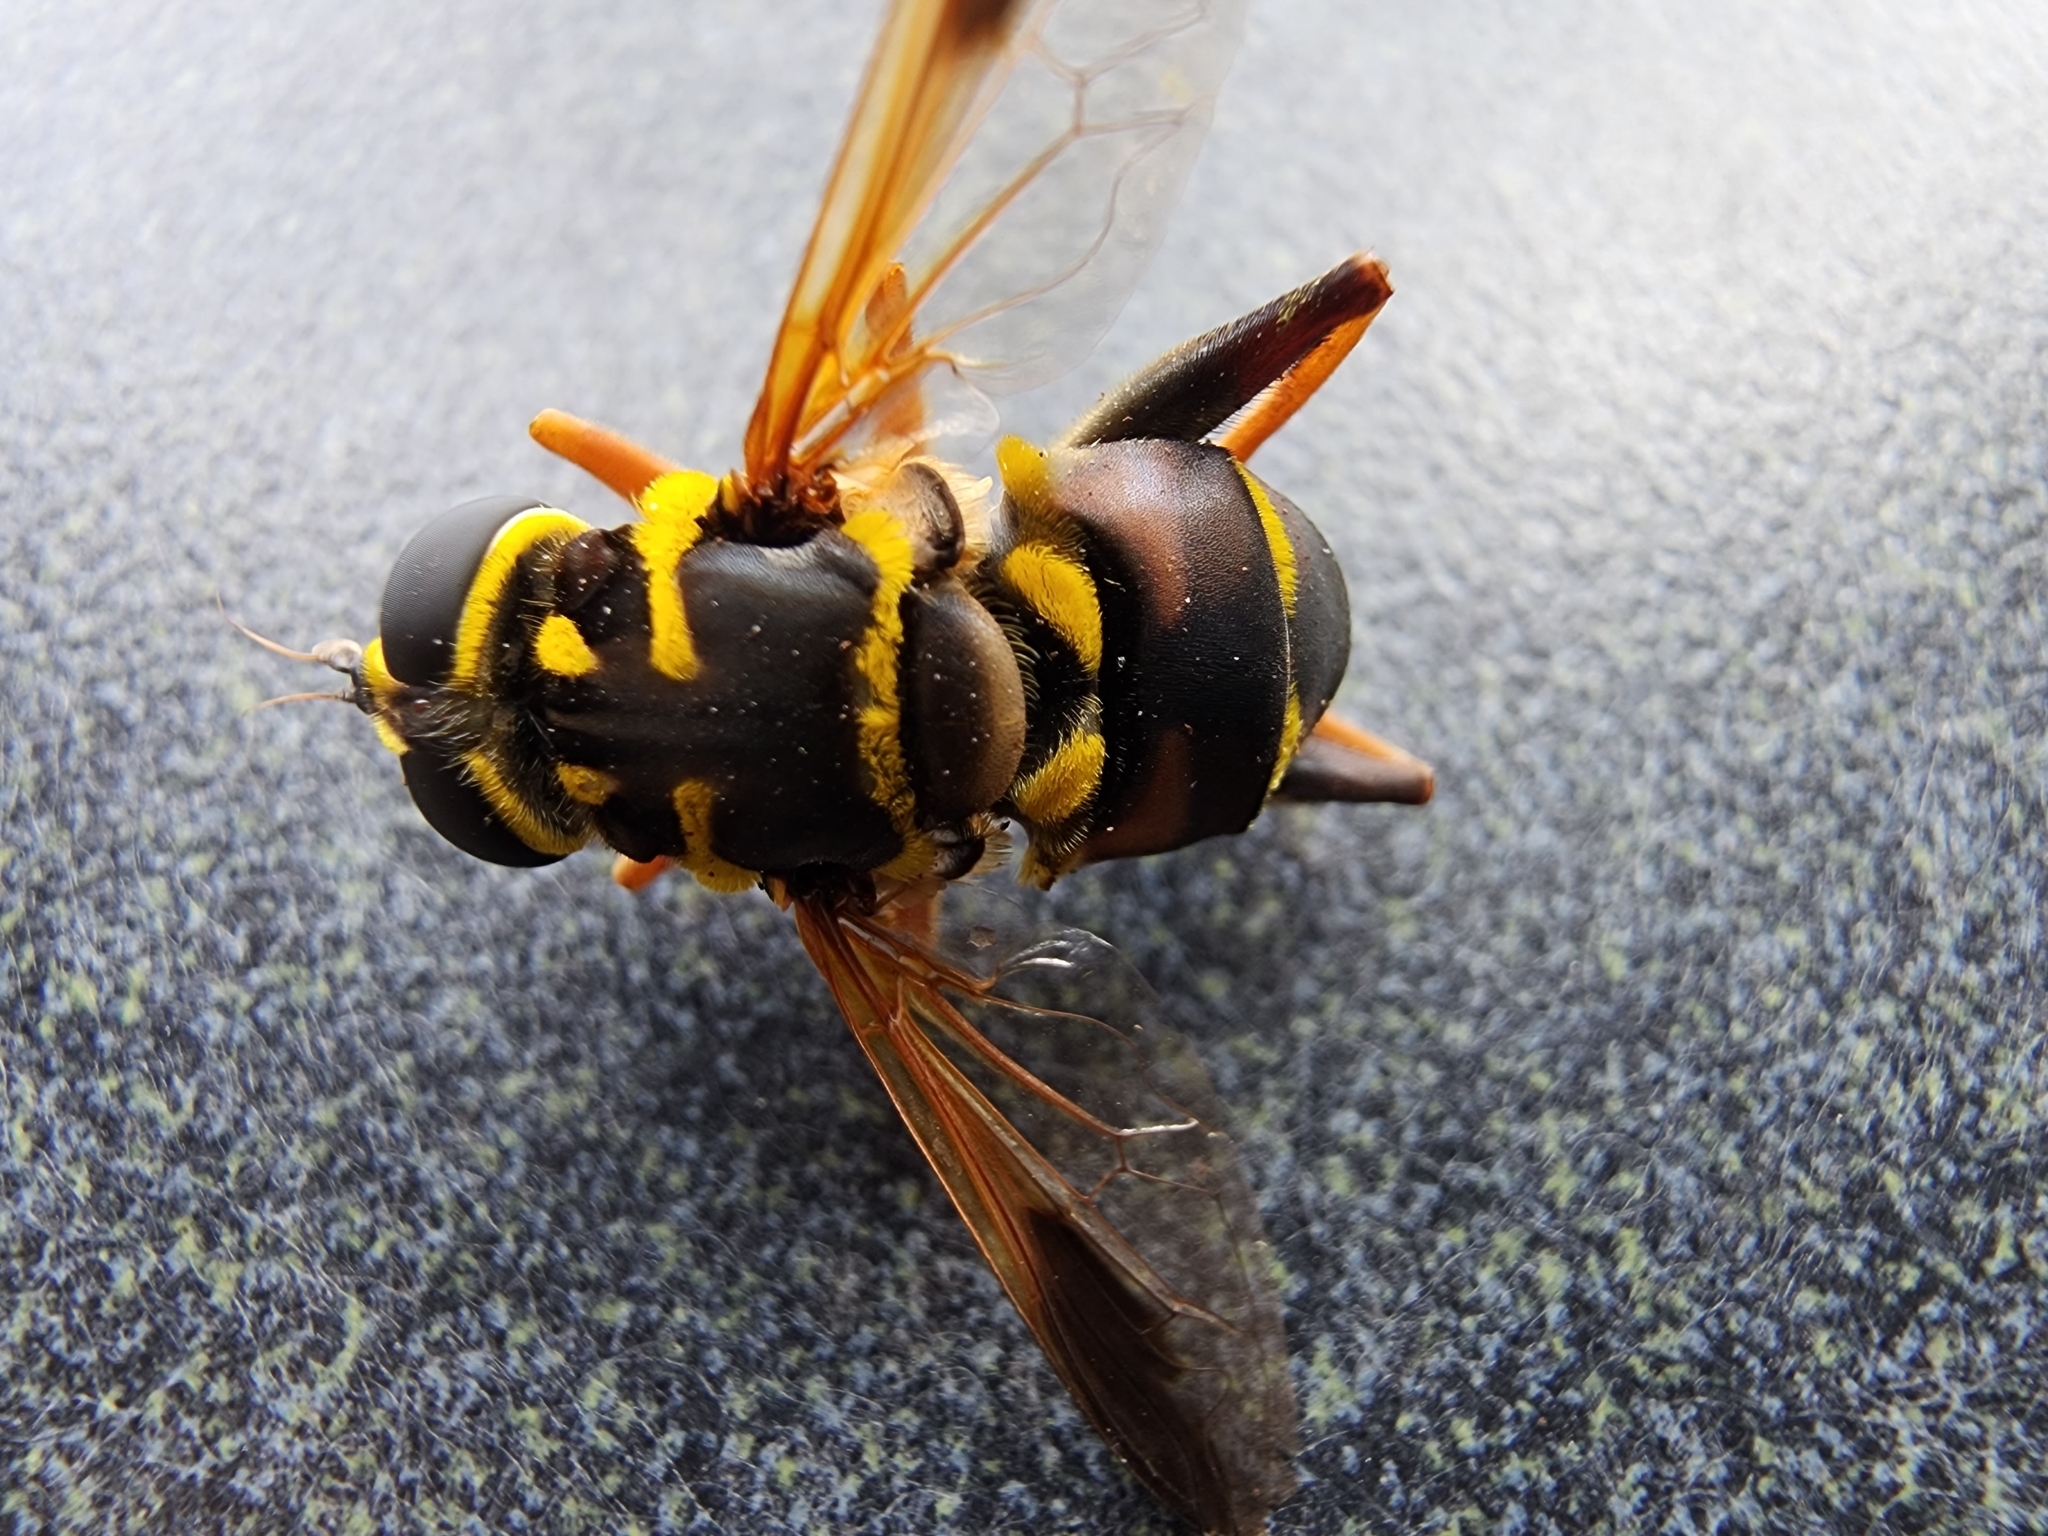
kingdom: Animalia
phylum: Arthropoda
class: Insecta
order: Diptera
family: Syrphidae
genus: Meromacrus
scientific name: Meromacrus acutus
